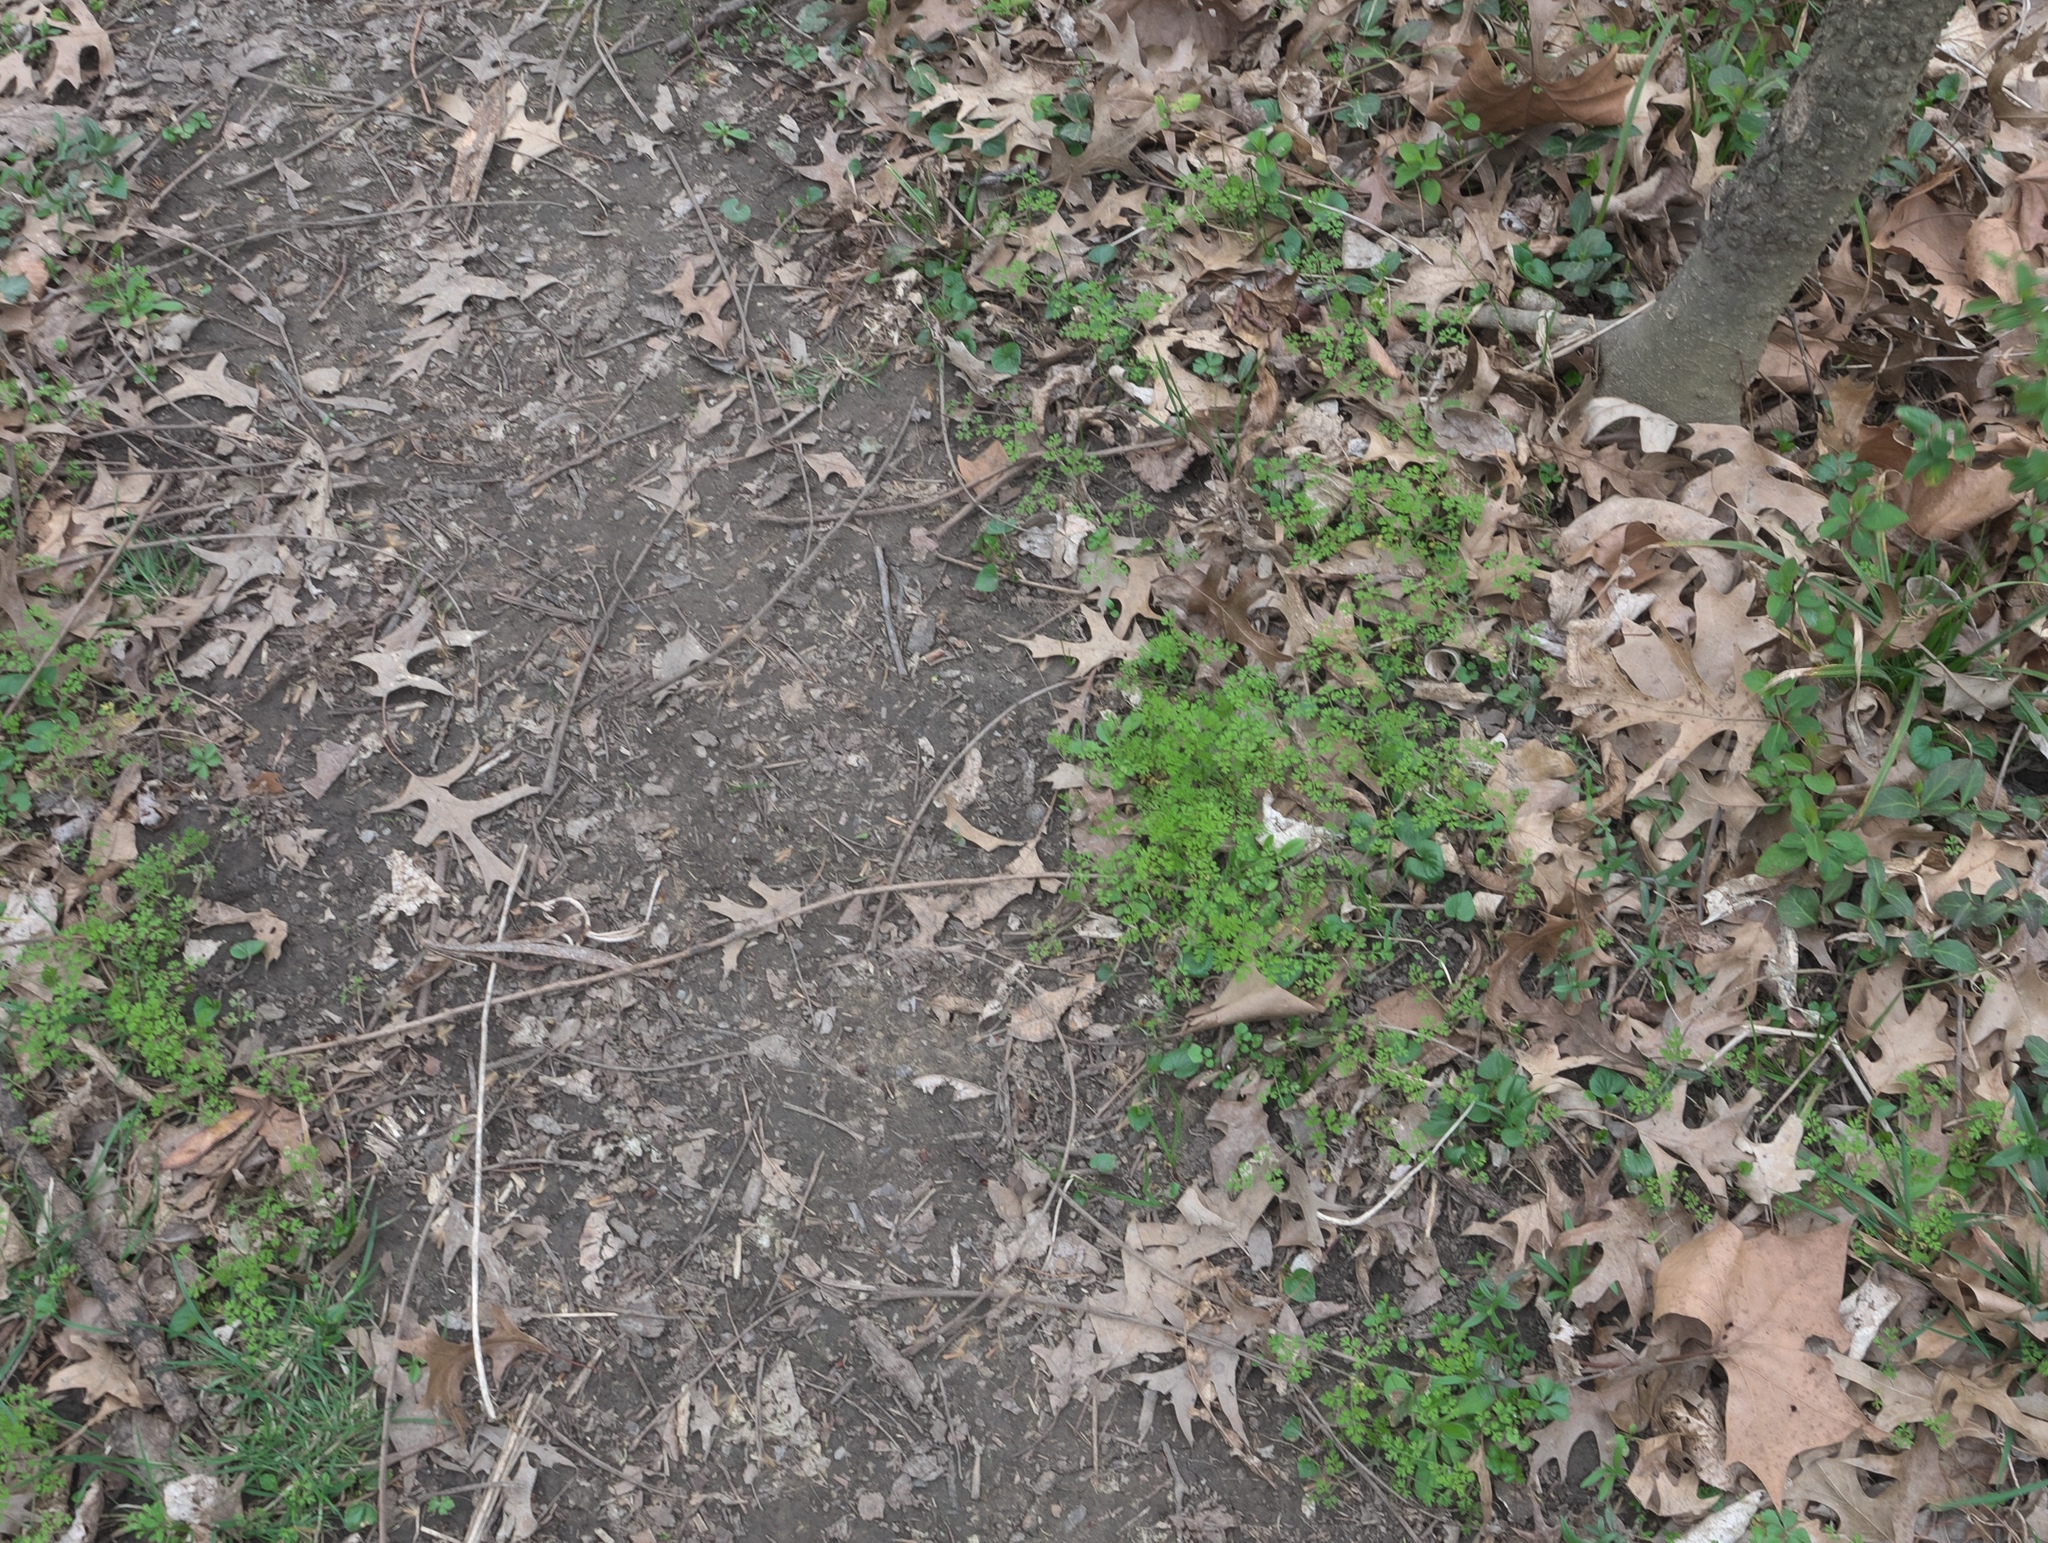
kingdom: Plantae
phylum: Tracheophyta
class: Magnoliopsida
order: Apiales
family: Apiaceae
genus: Chaerophyllum
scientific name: Chaerophyllum tainturieri
